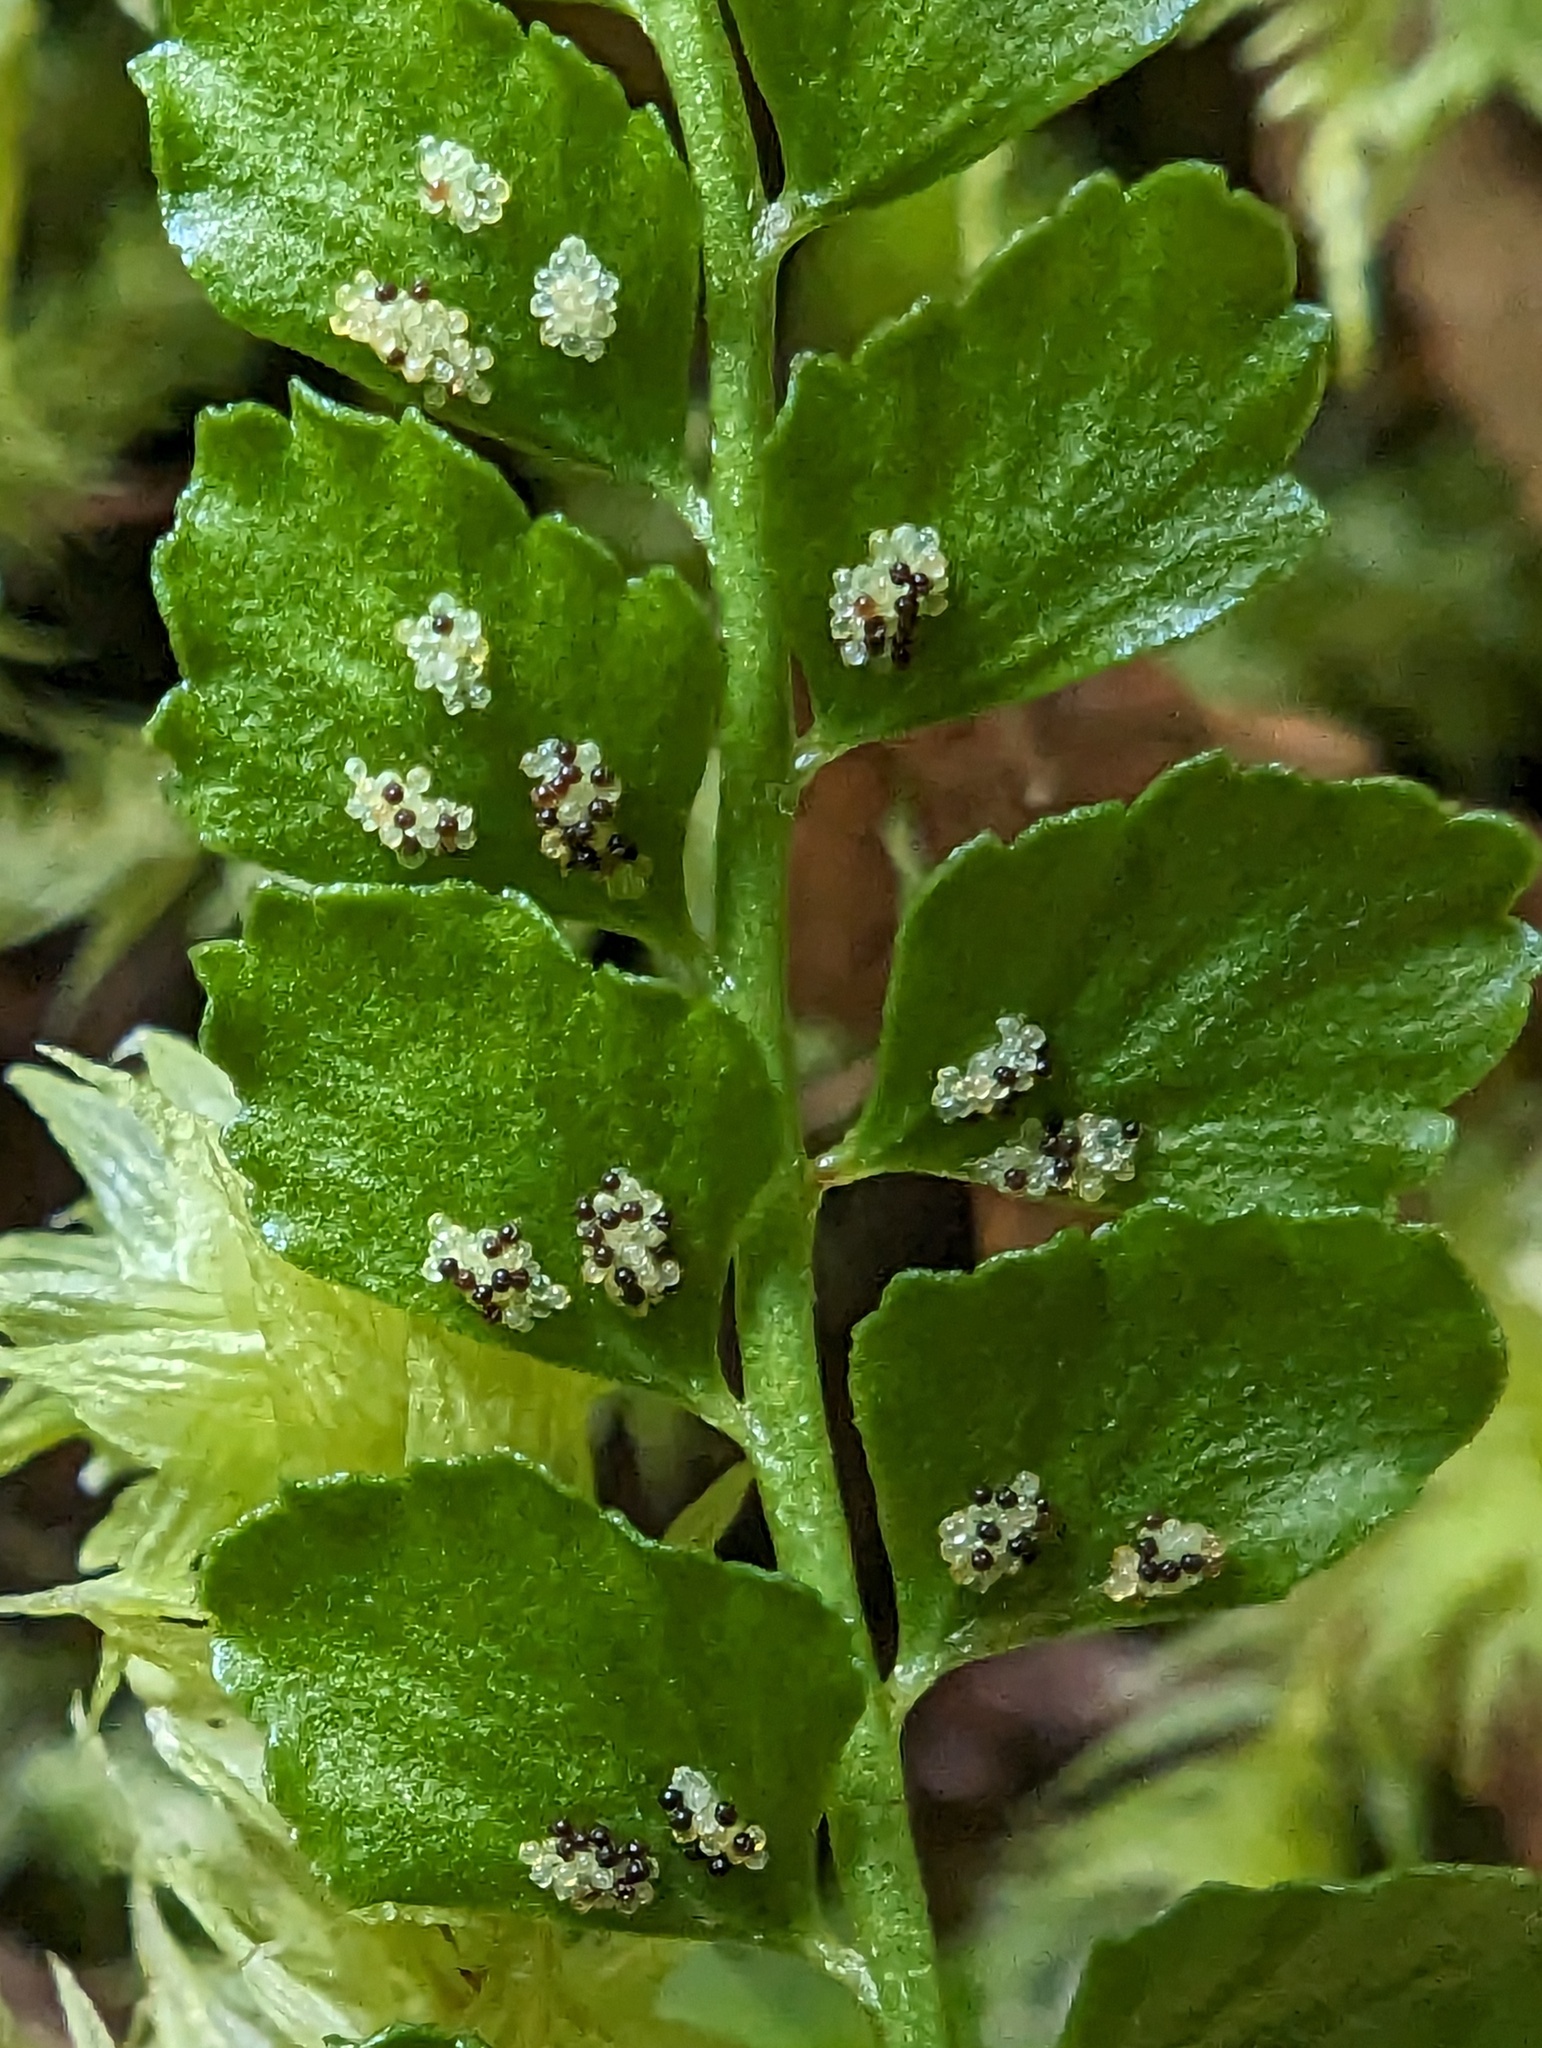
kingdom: Plantae
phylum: Tracheophyta
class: Polypodiopsida
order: Polypodiales
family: Aspleniaceae
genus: Asplenium
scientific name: Asplenium viride
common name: Green spleenwort
